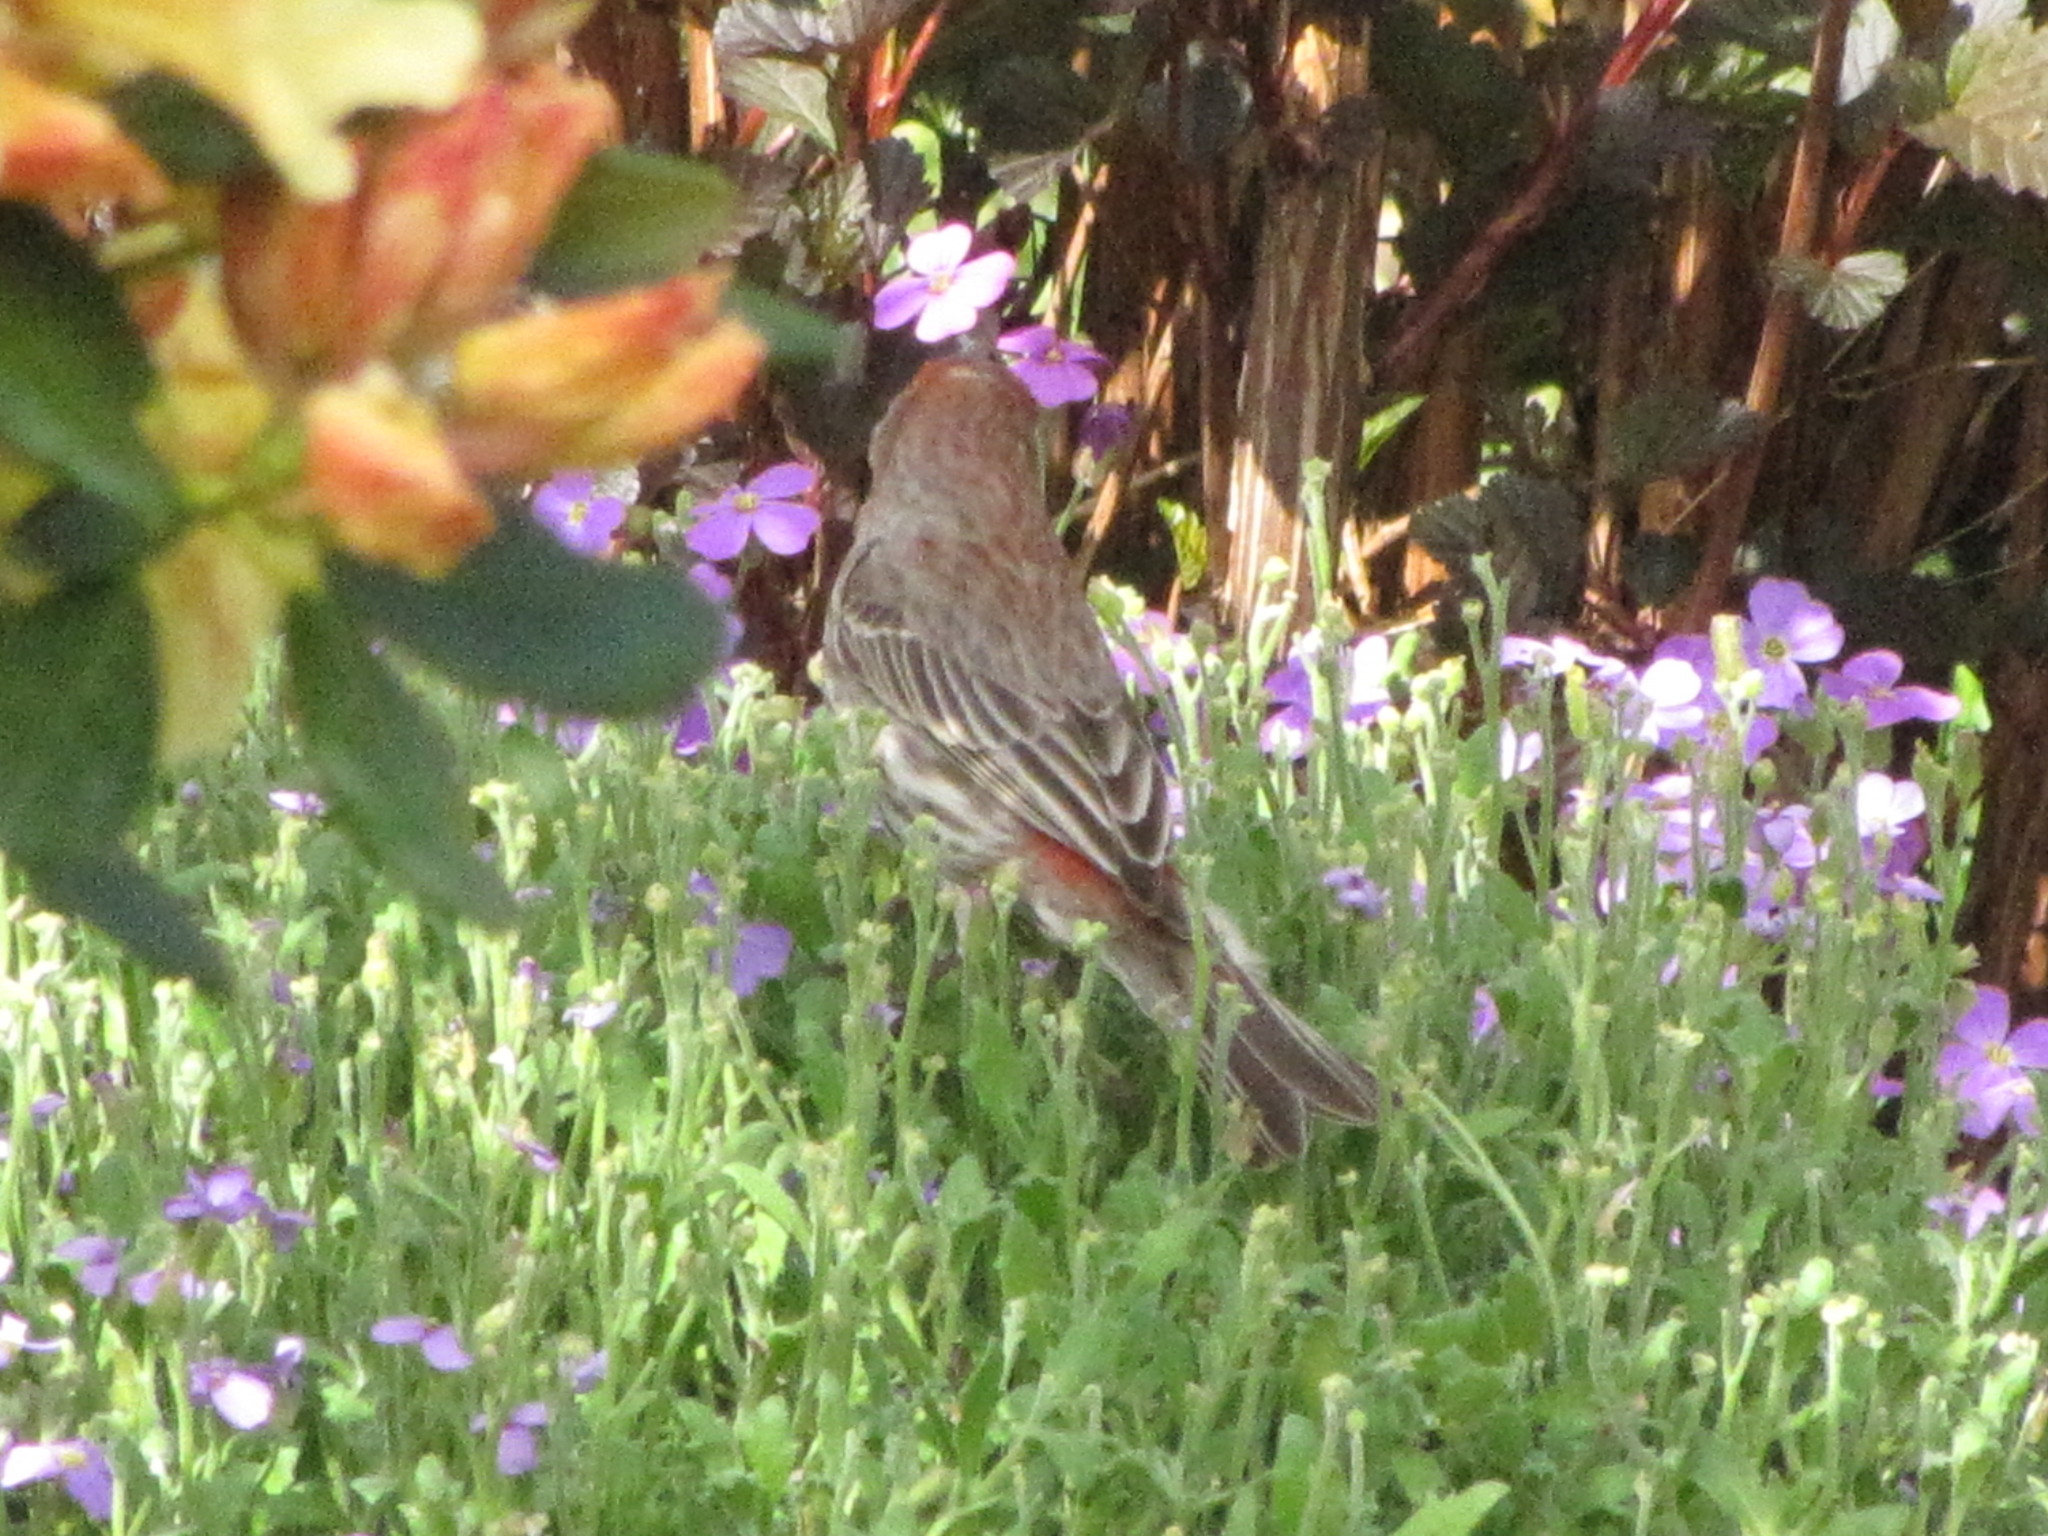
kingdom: Animalia
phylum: Chordata
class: Aves
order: Passeriformes
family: Fringillidae
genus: Haemorhous
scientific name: Haemorhous mexicanus
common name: House finch
